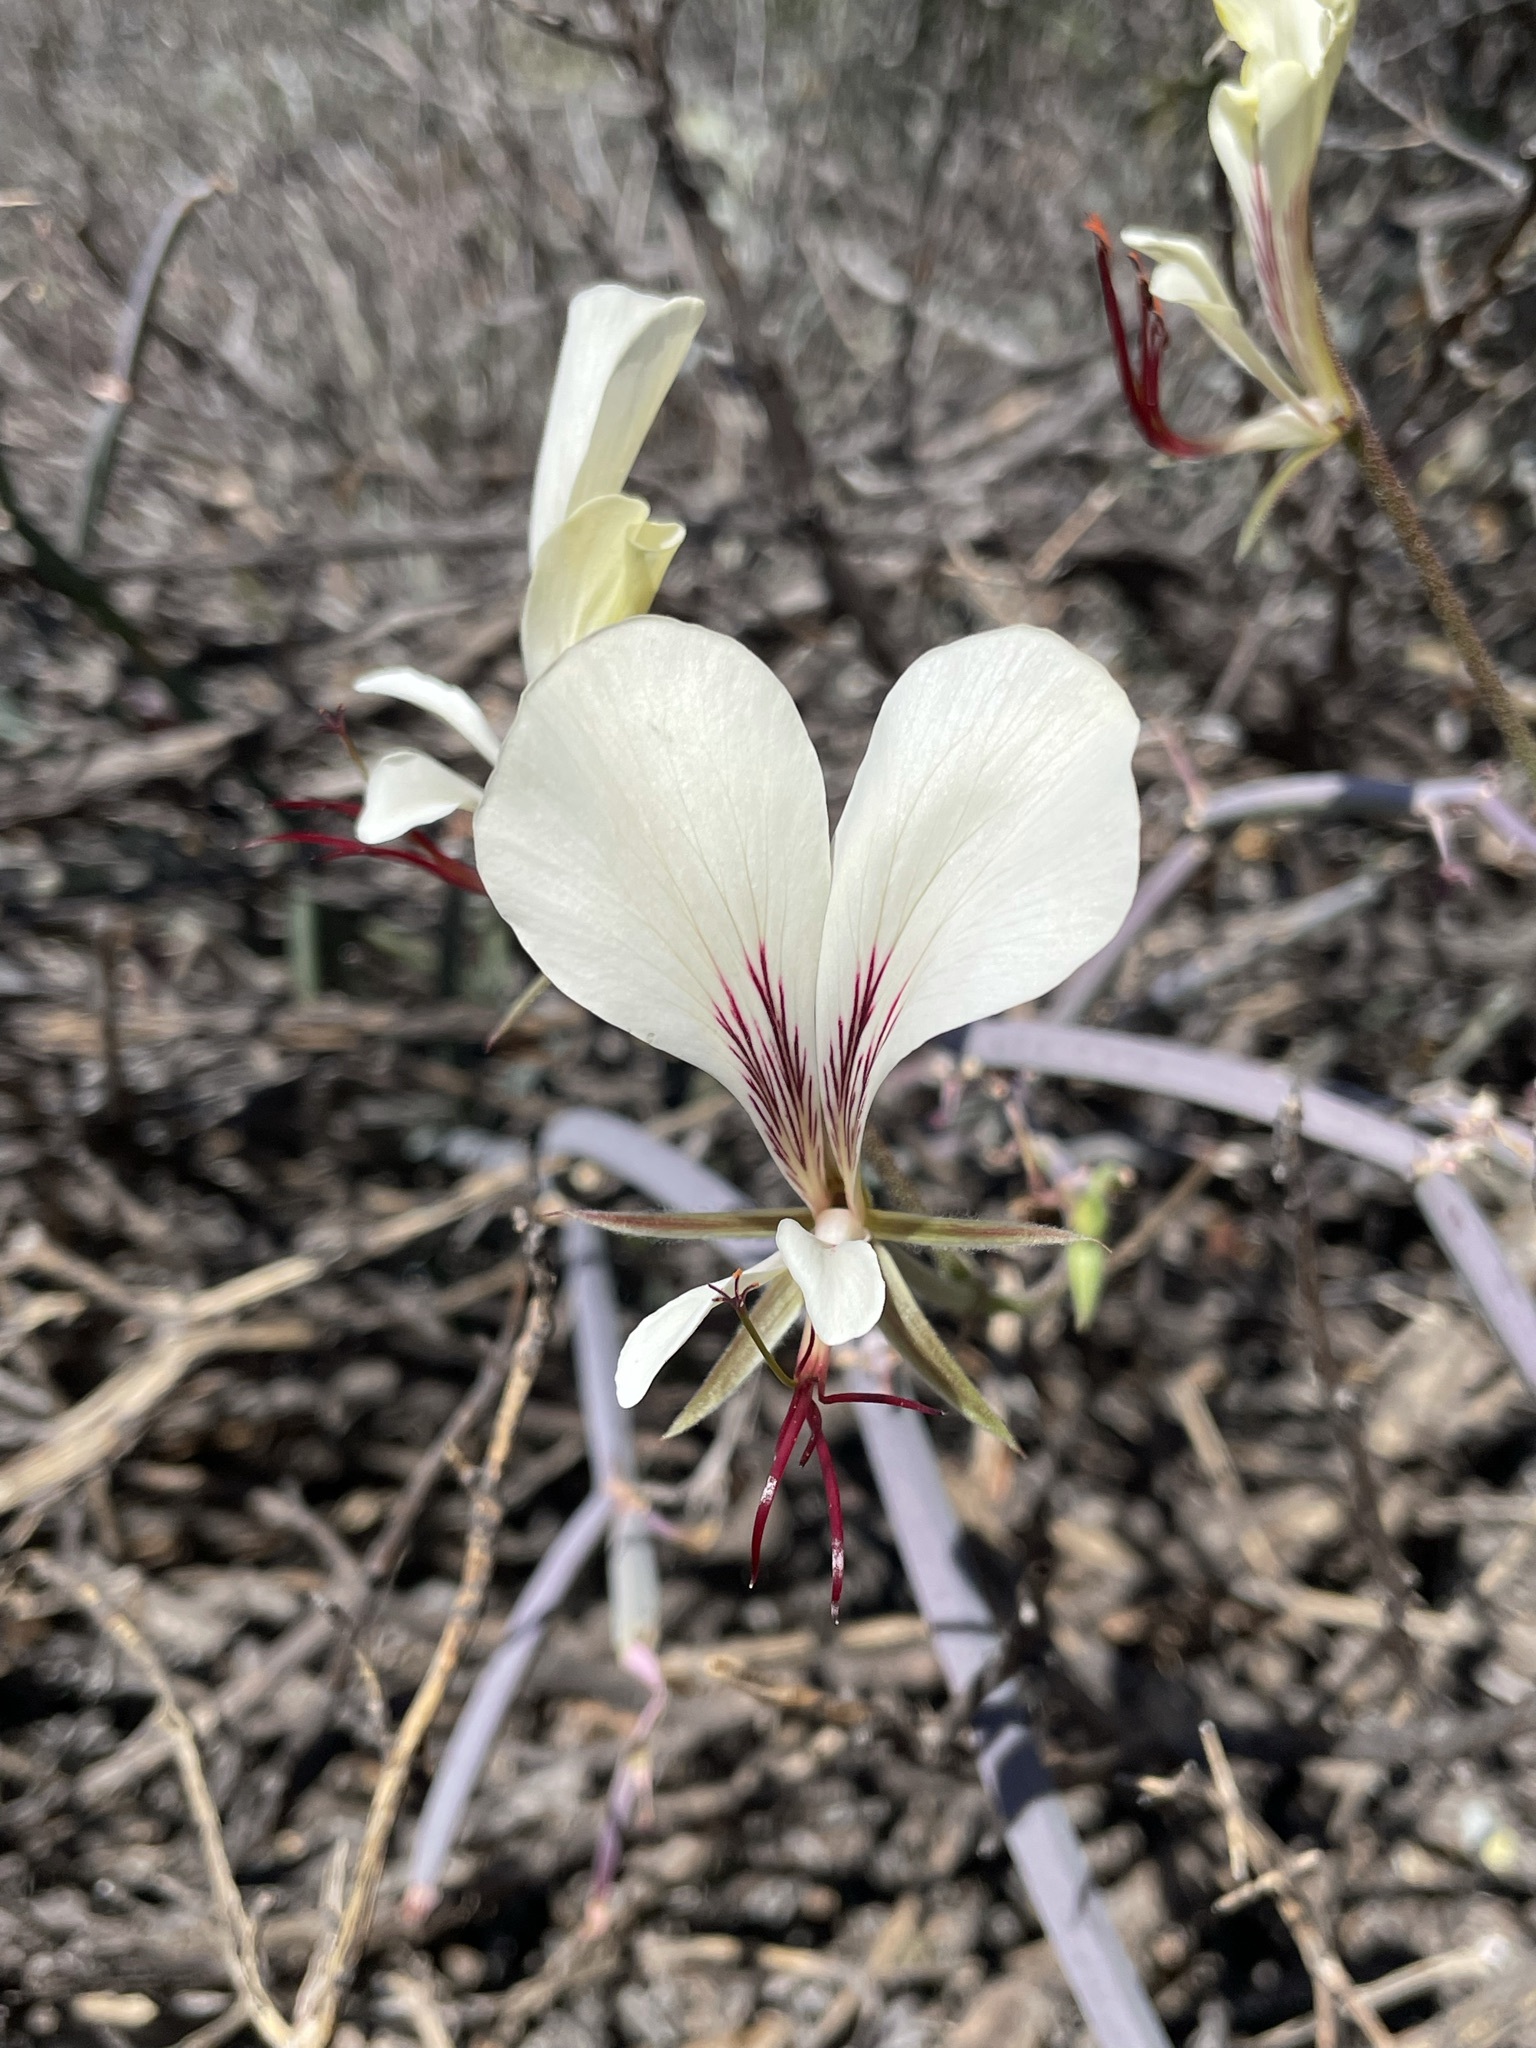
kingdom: Plantae
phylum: Tracheophyta
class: Magnoliopsida
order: Geraniales
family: Geraniaceae
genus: Pelargonium
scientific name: Pelargonium tetragonum
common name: Square-stack crane's-bill
